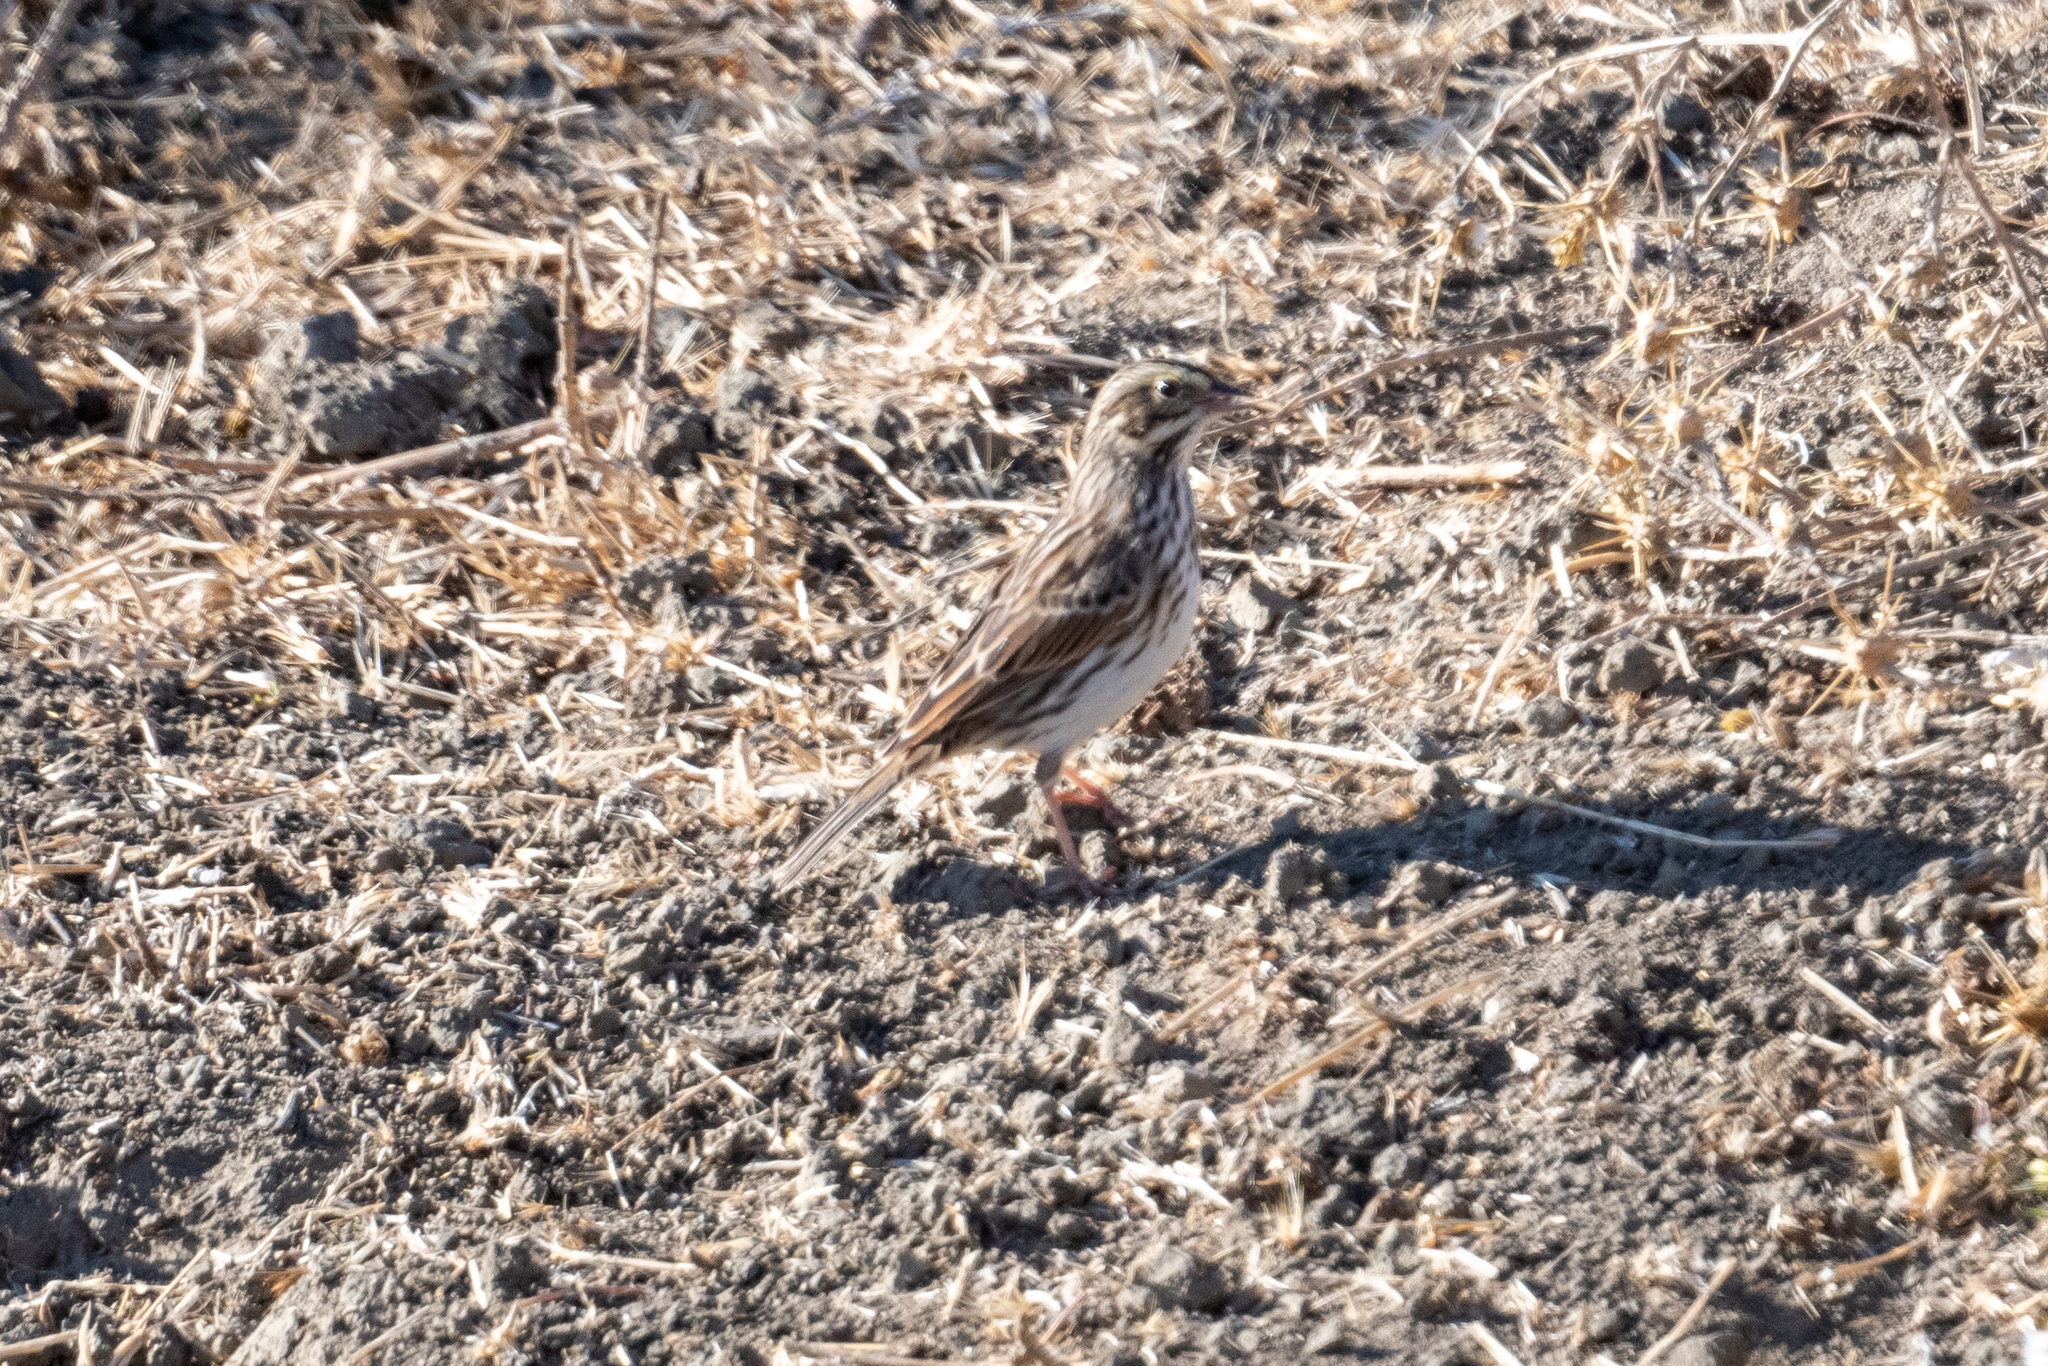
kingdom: Animalia
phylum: Chordata
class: Aves
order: Passeriformes
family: Passerellidae
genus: Passerculus
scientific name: Passerculus sandwichensis
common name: Savannah sparrow
